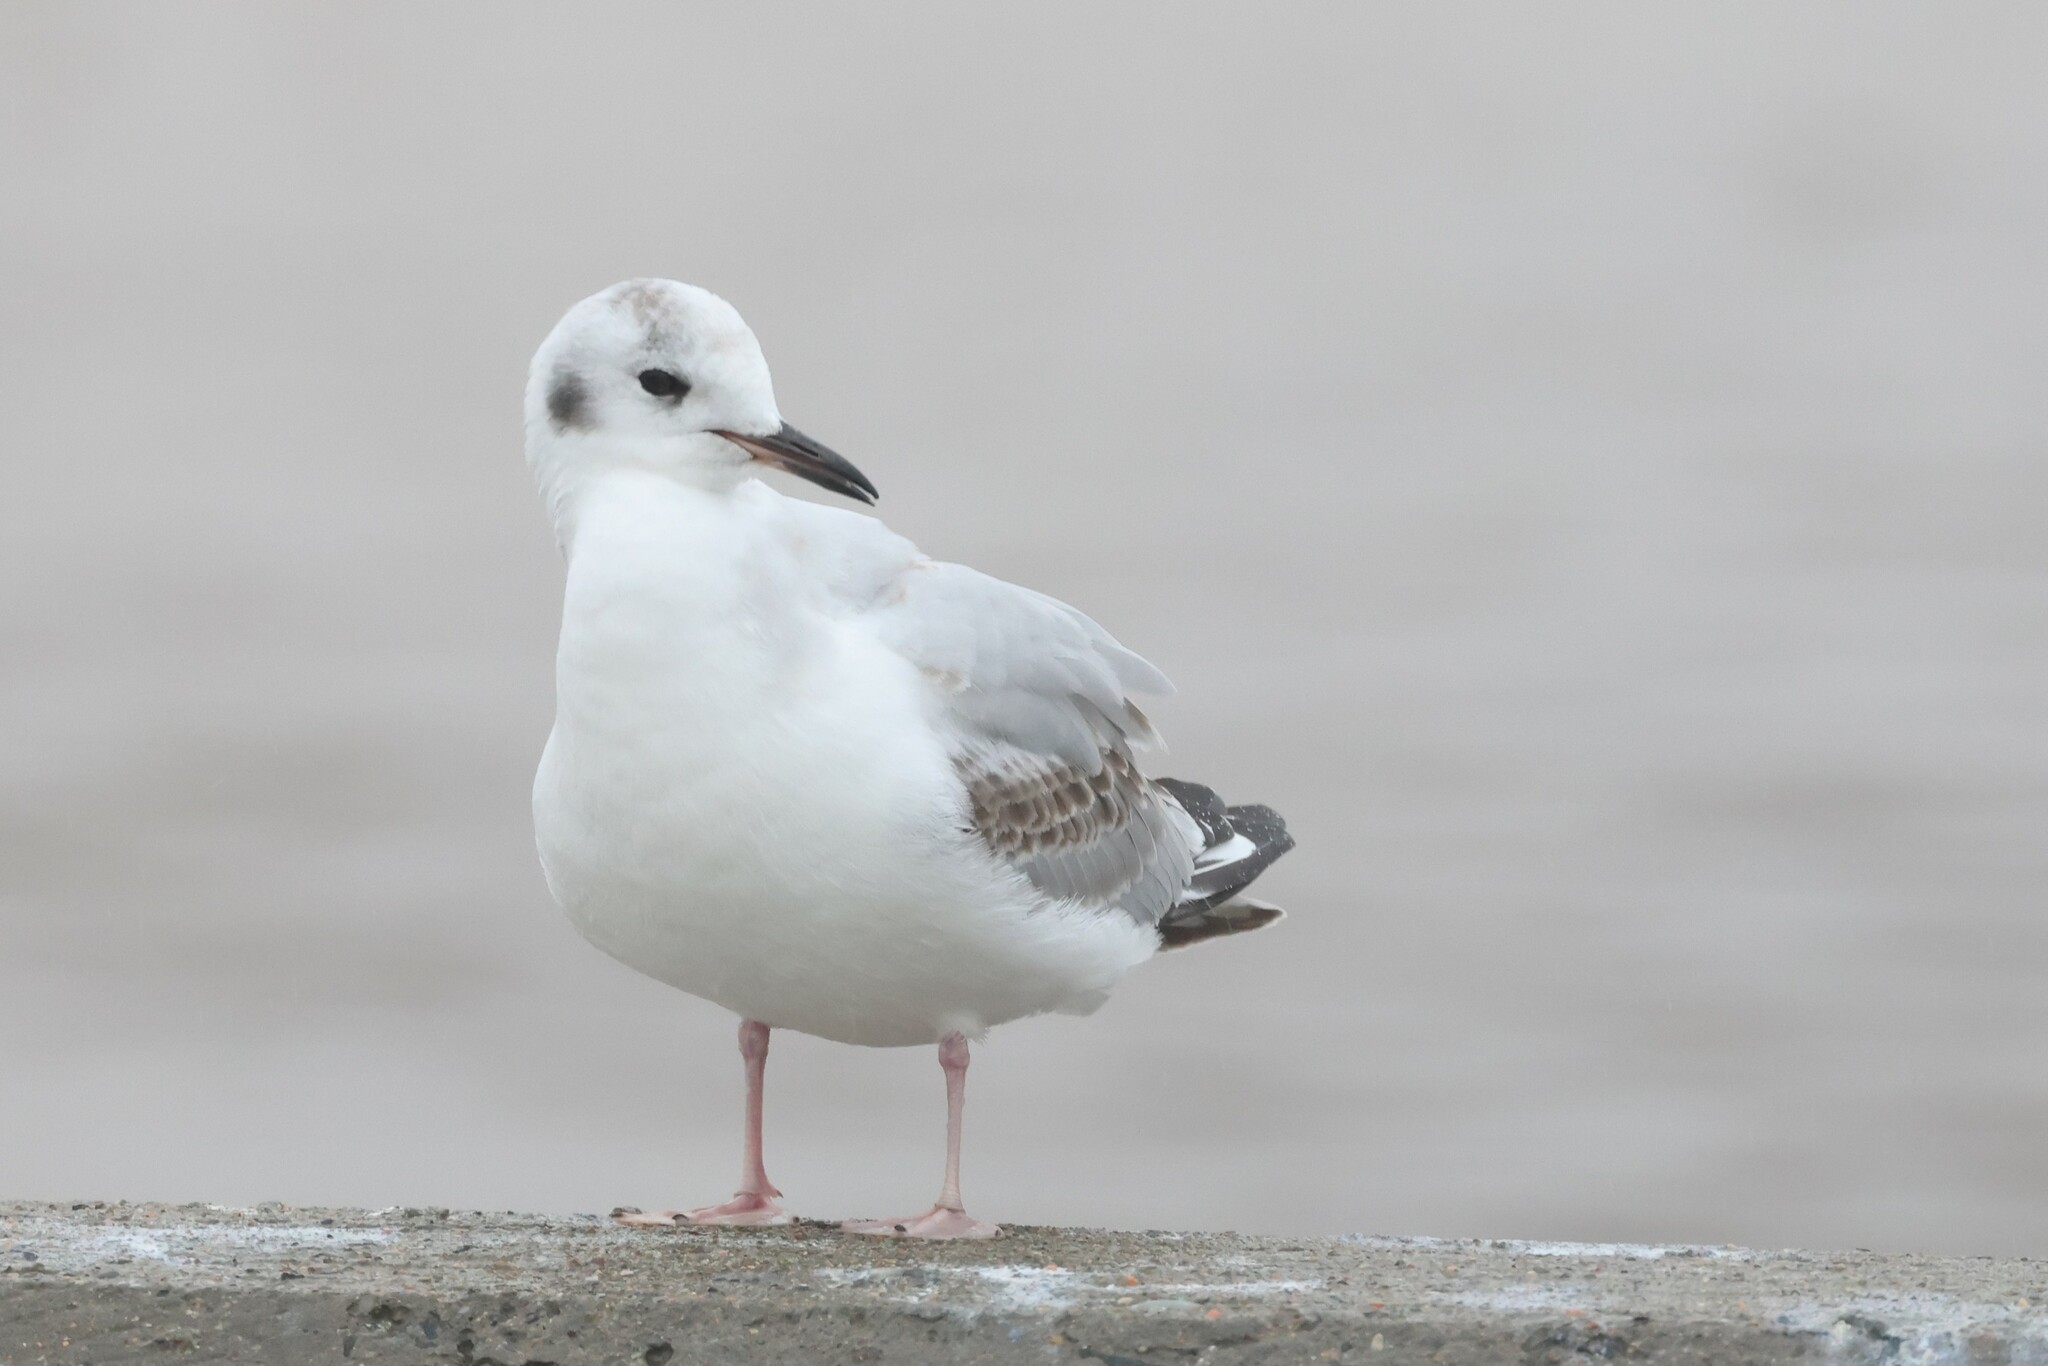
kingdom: Animalia
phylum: Chordata
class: Aves
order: Charadriiformes
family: Laridae
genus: Chroicocephalus
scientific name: Chroicocephalus philadelphia
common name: Bonaparte's gull
